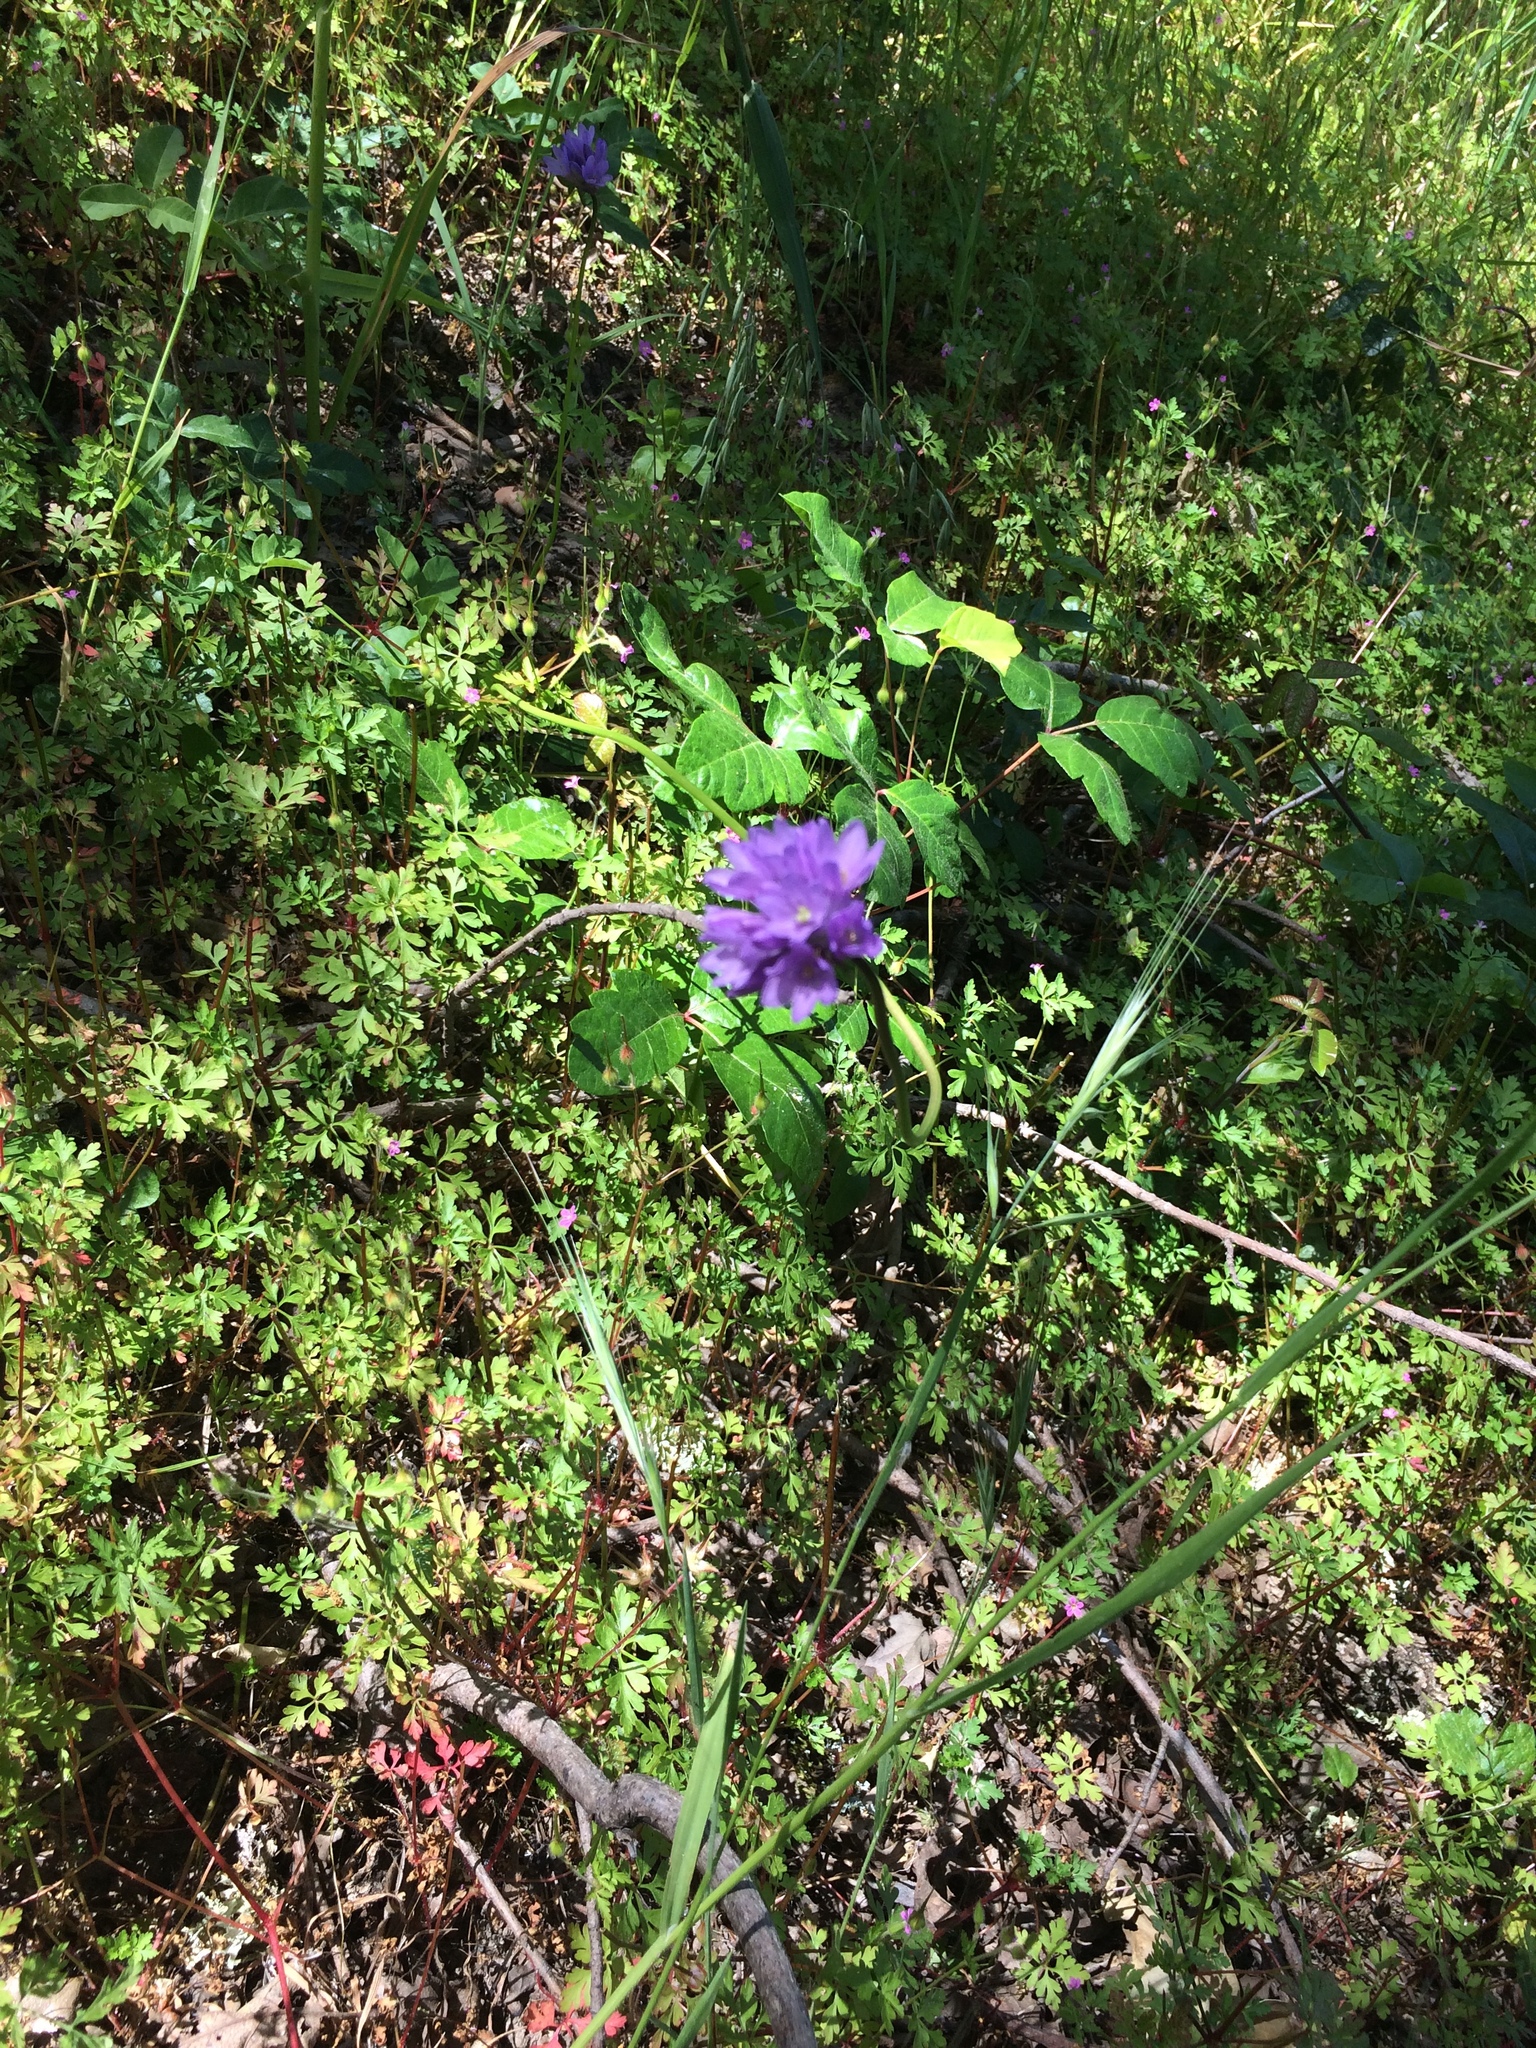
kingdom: Plantae
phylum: Tracheophyta
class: Liliopsida
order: Asparagales
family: Asparagaceae
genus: Dichelostemma
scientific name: Dichelostemma congestum
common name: Fork-tooth ookow
